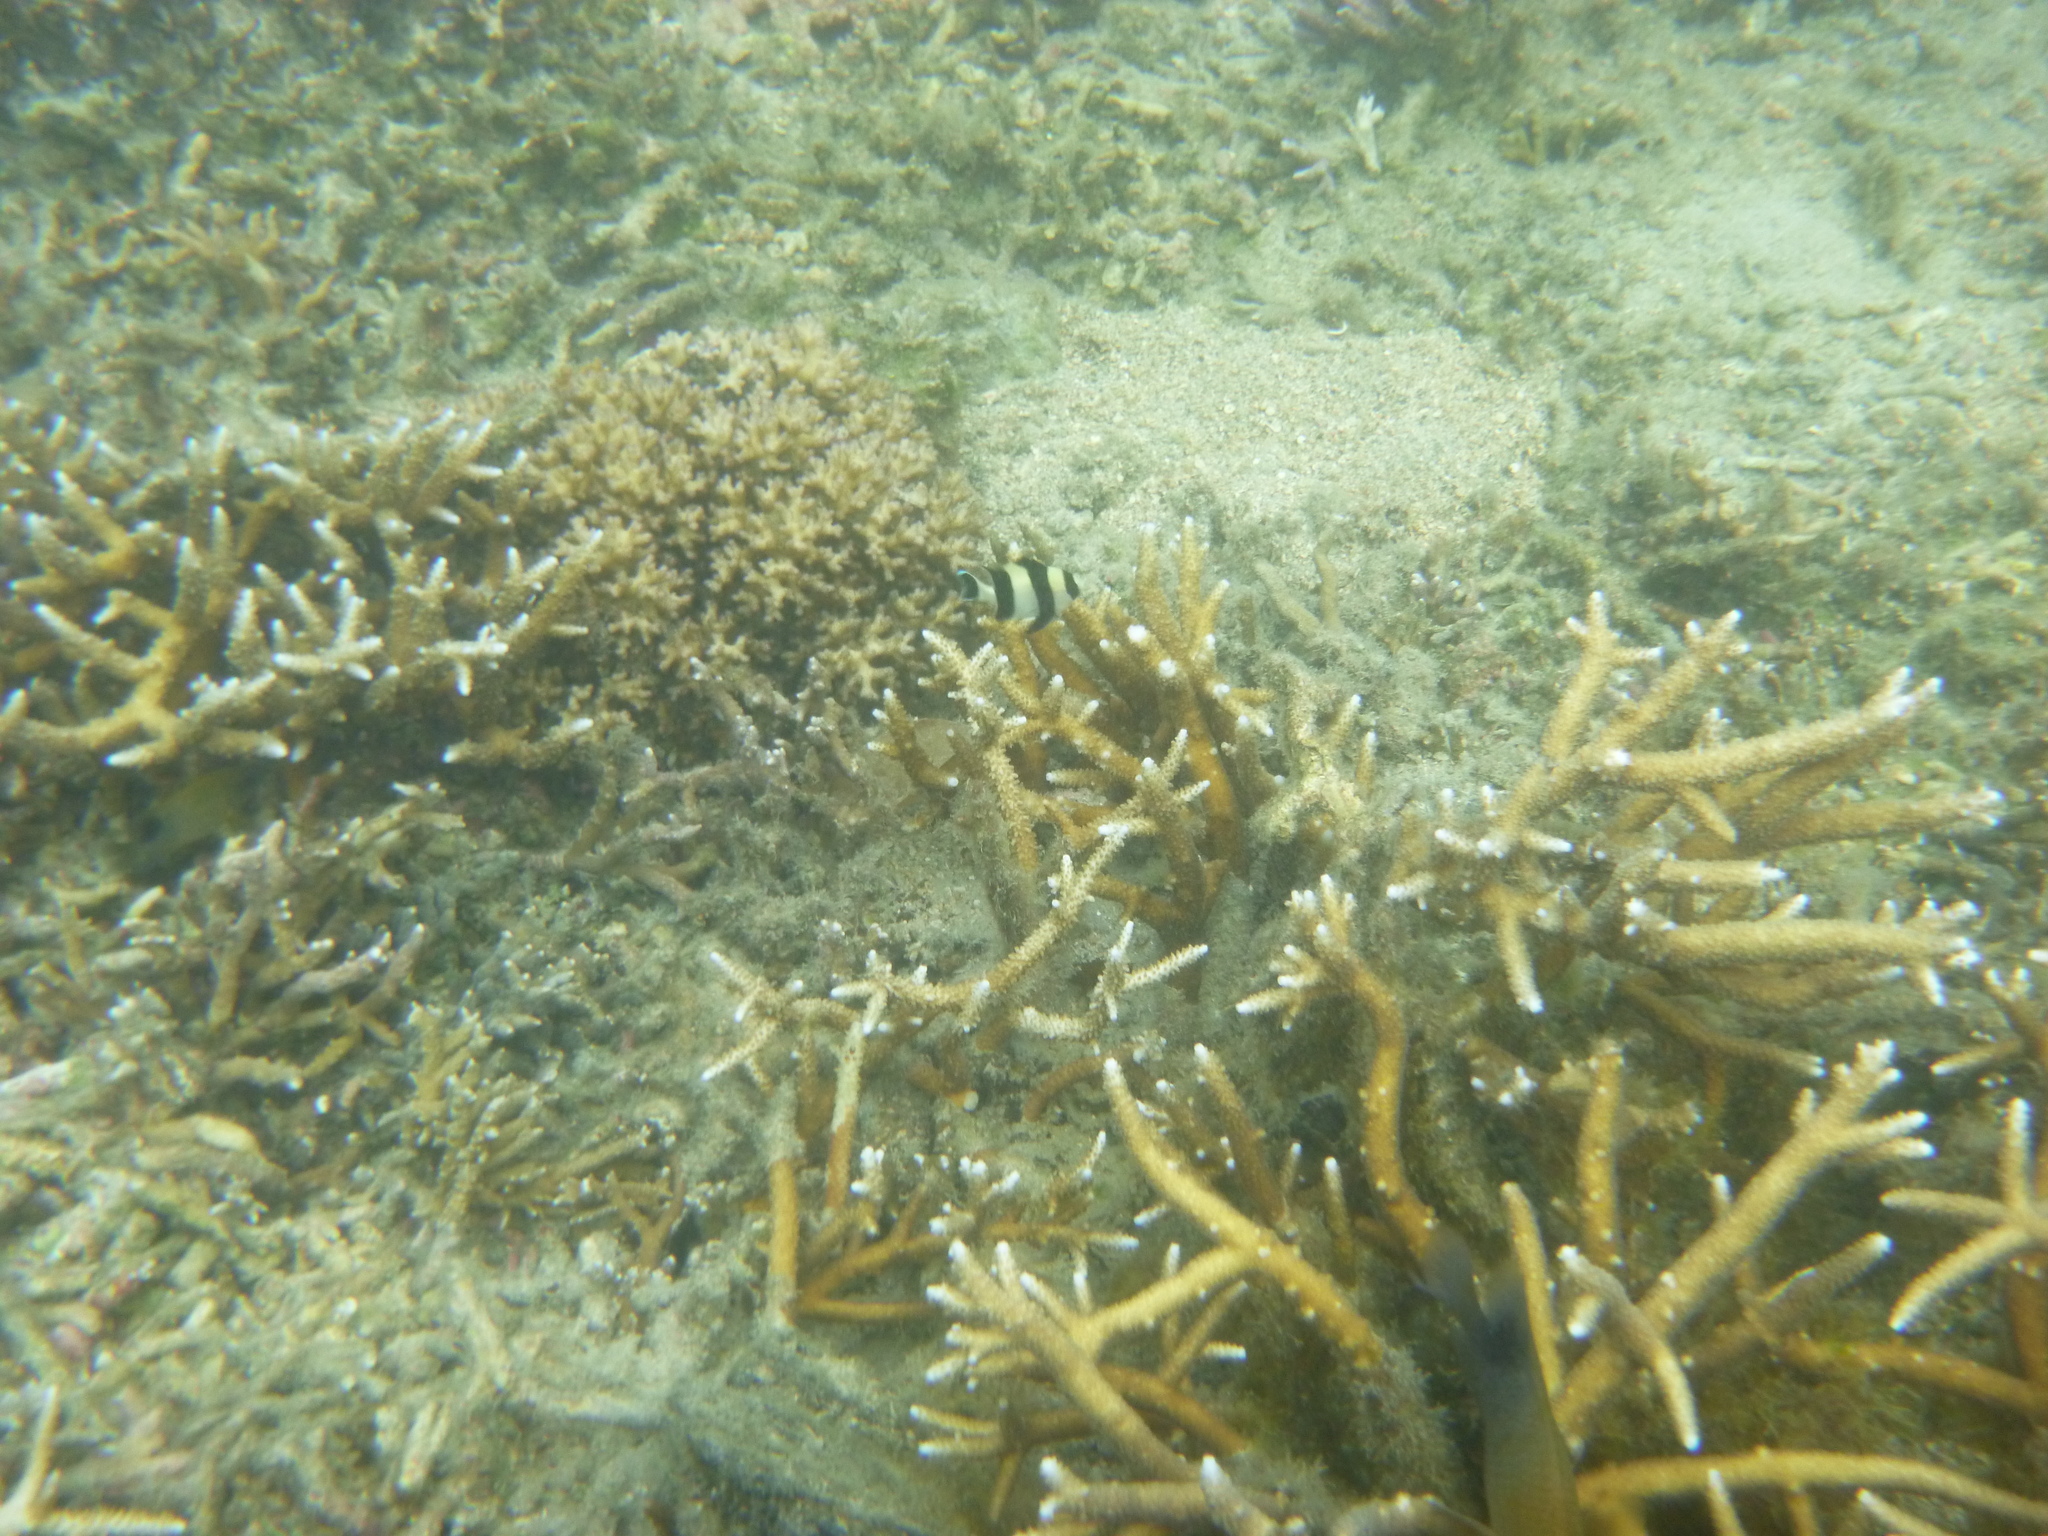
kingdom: Animalia
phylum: Chordata
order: Perciformes
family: Pomacentridae
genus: Dascyllus
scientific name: Dascyllus melanurus
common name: Black-tail dascyllus
